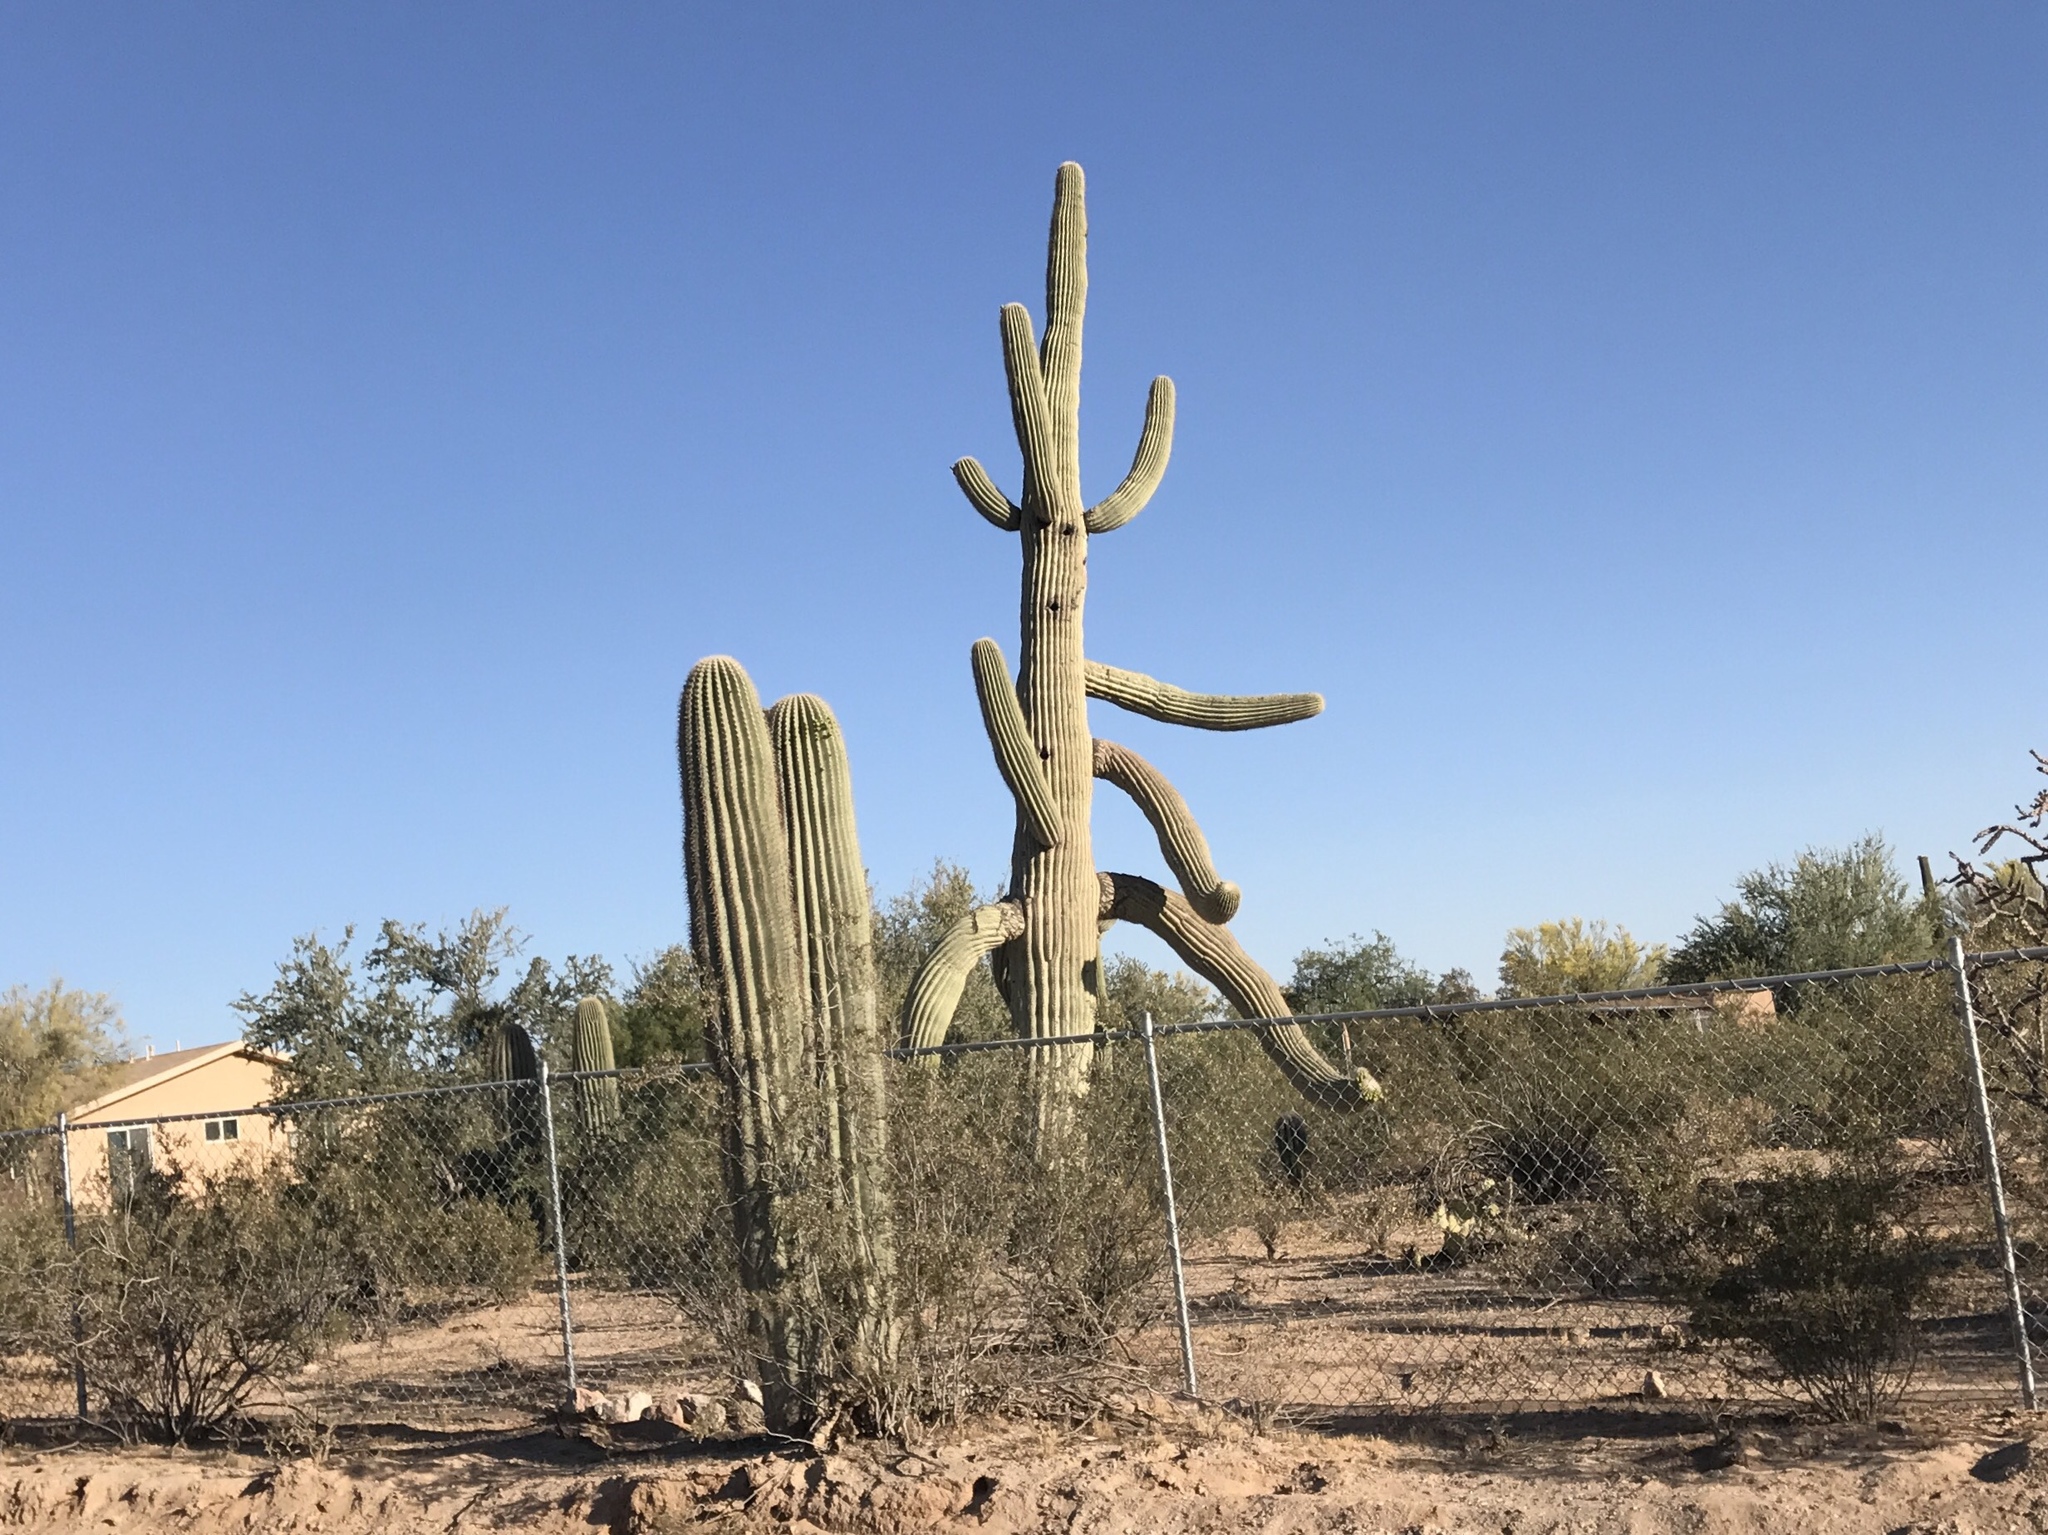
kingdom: Plantae
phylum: Tracheophyta
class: Magnoliopsida
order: Caryophyllales
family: Cactaceae
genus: Carnegiea
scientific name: Carnegiea gigantea
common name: Saguaro
